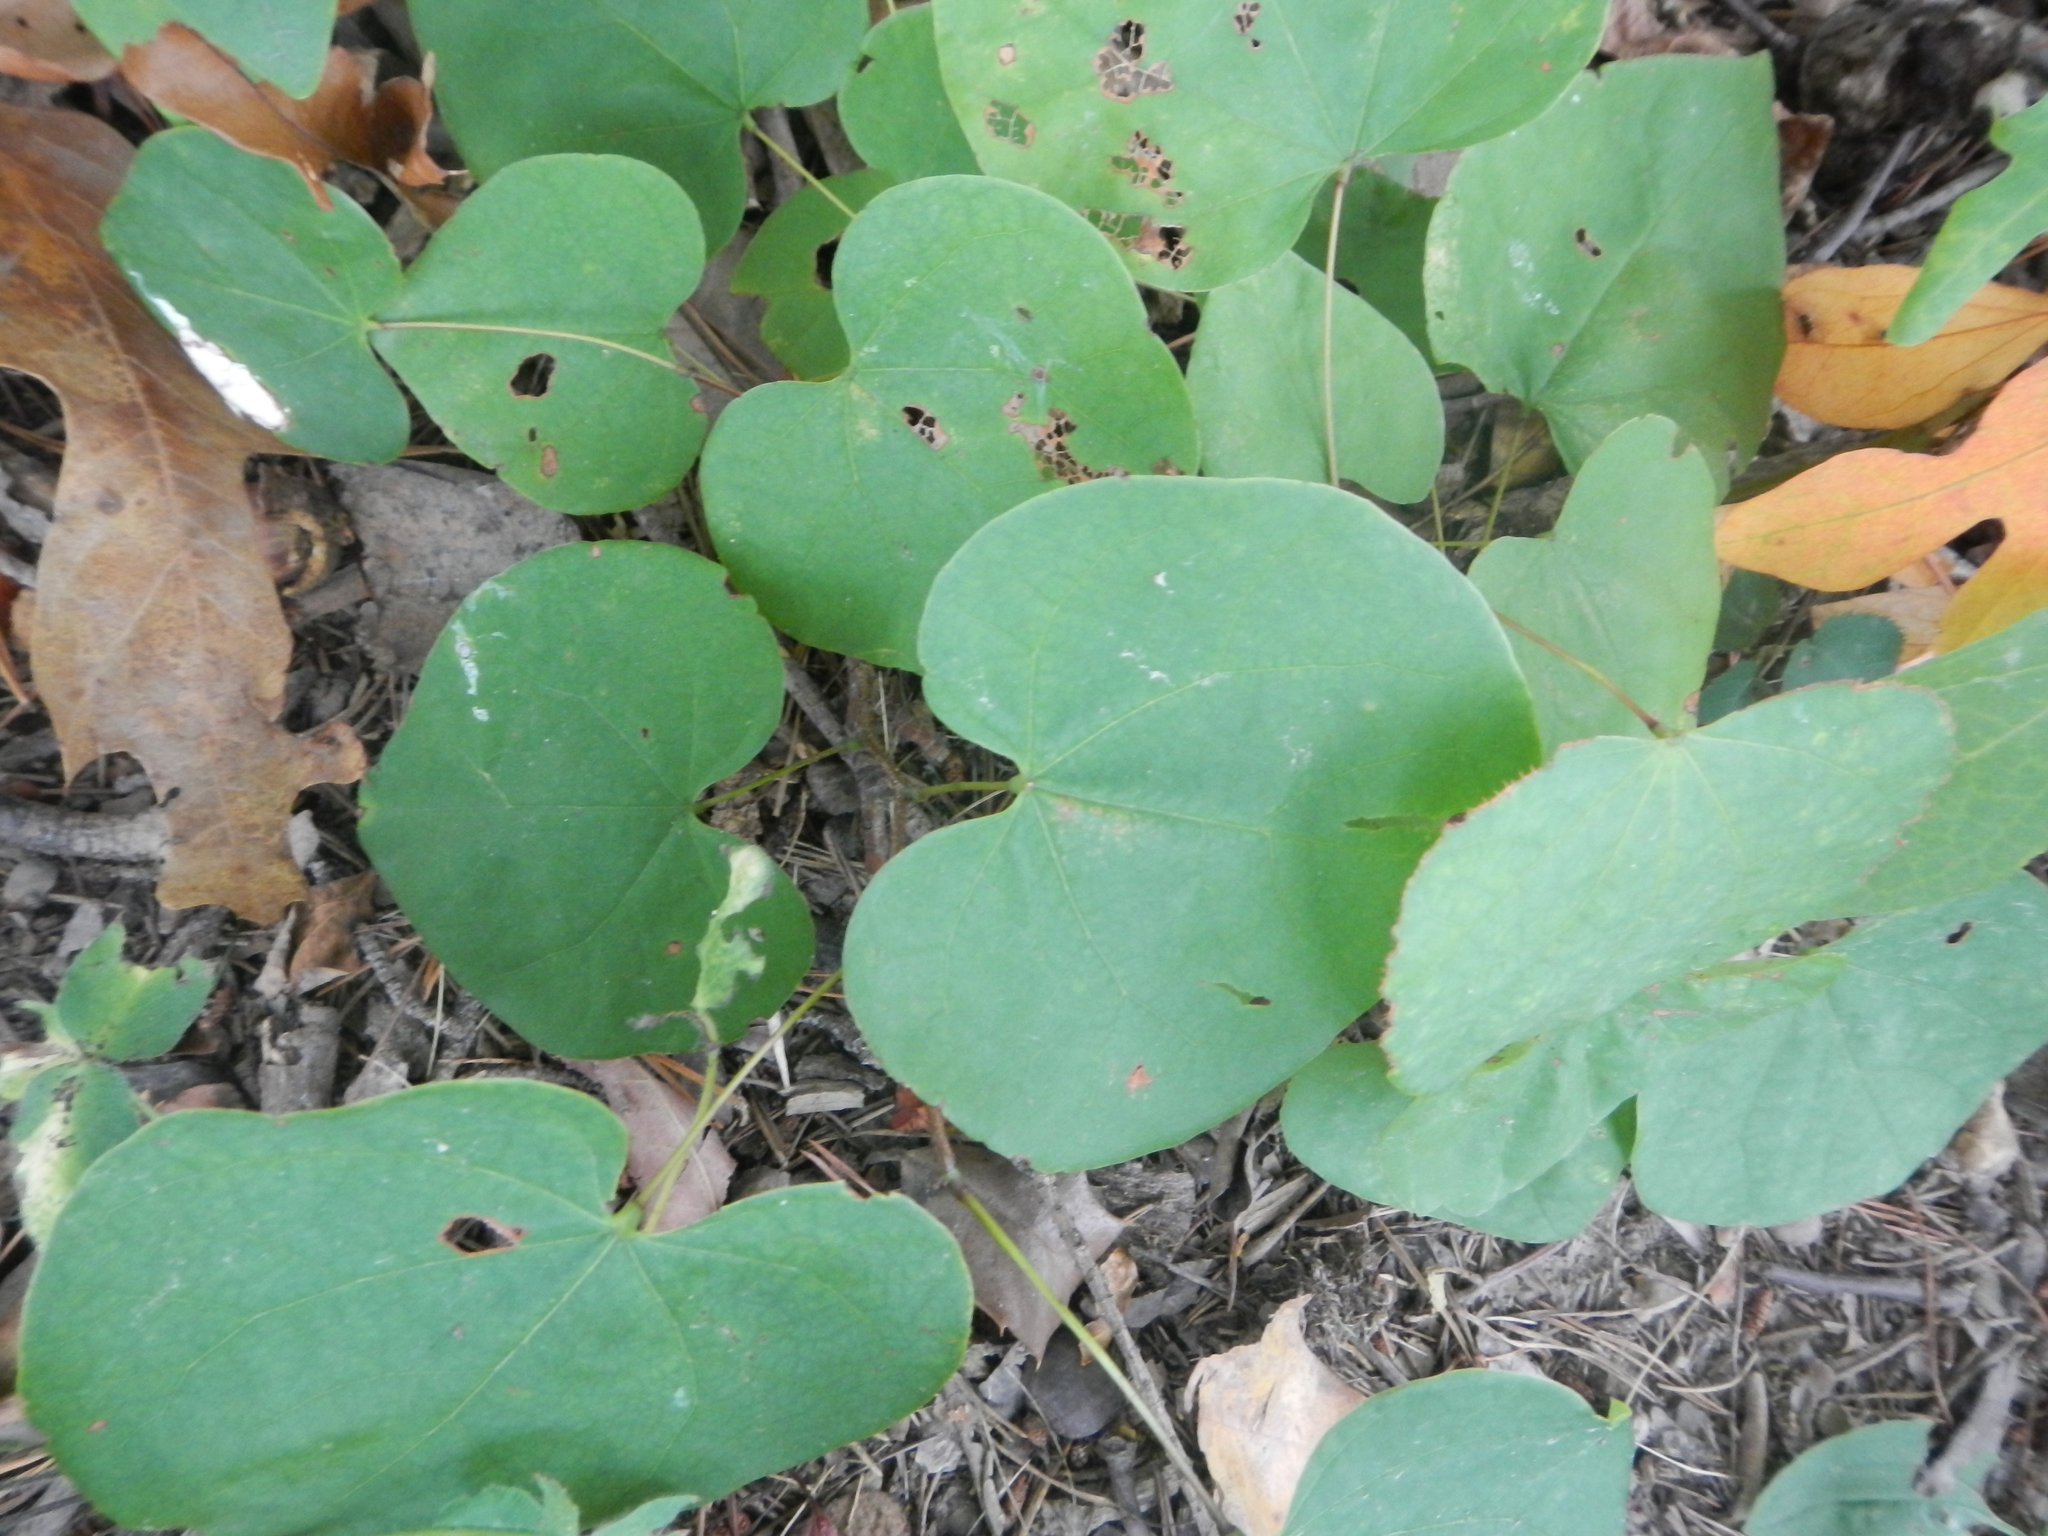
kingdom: Plantae
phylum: Tracheophyta
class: Magnoliopsida
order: Fabales
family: Fabaceae
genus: Cercis
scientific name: Cercis canadensis
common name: Eastern redbud
